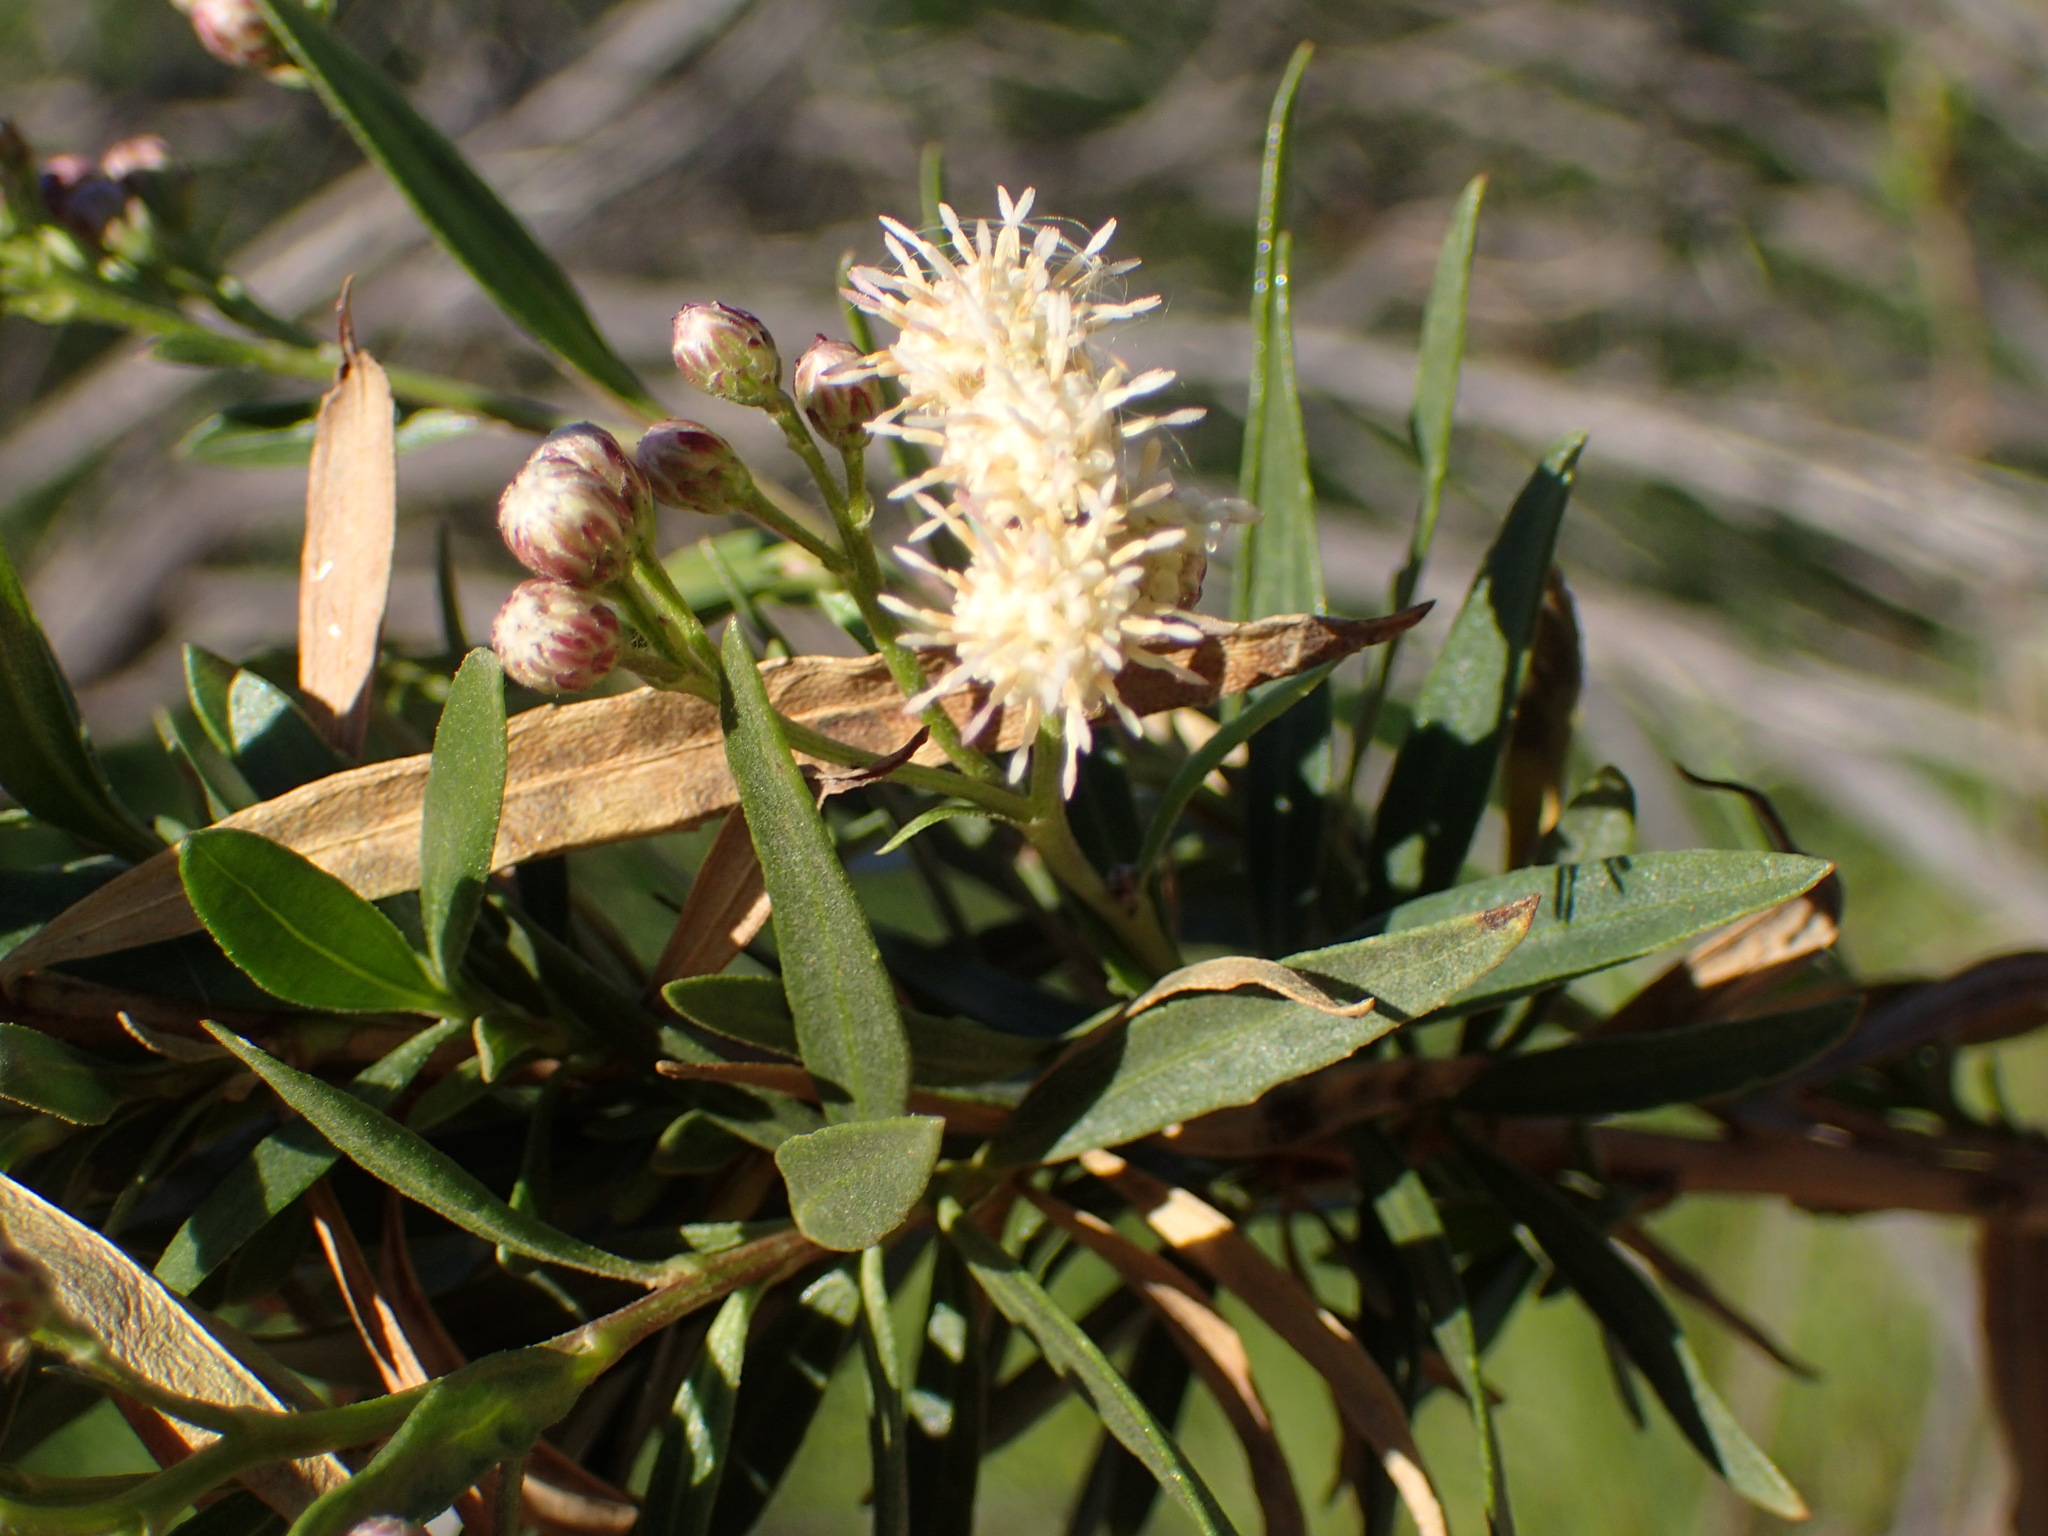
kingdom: Plantae
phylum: Tracheophyta
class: Magnoliopsida
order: Asterales
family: Asteraceae
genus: Baccharis
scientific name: Baccharis salicifolia
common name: Sticky baccharis
